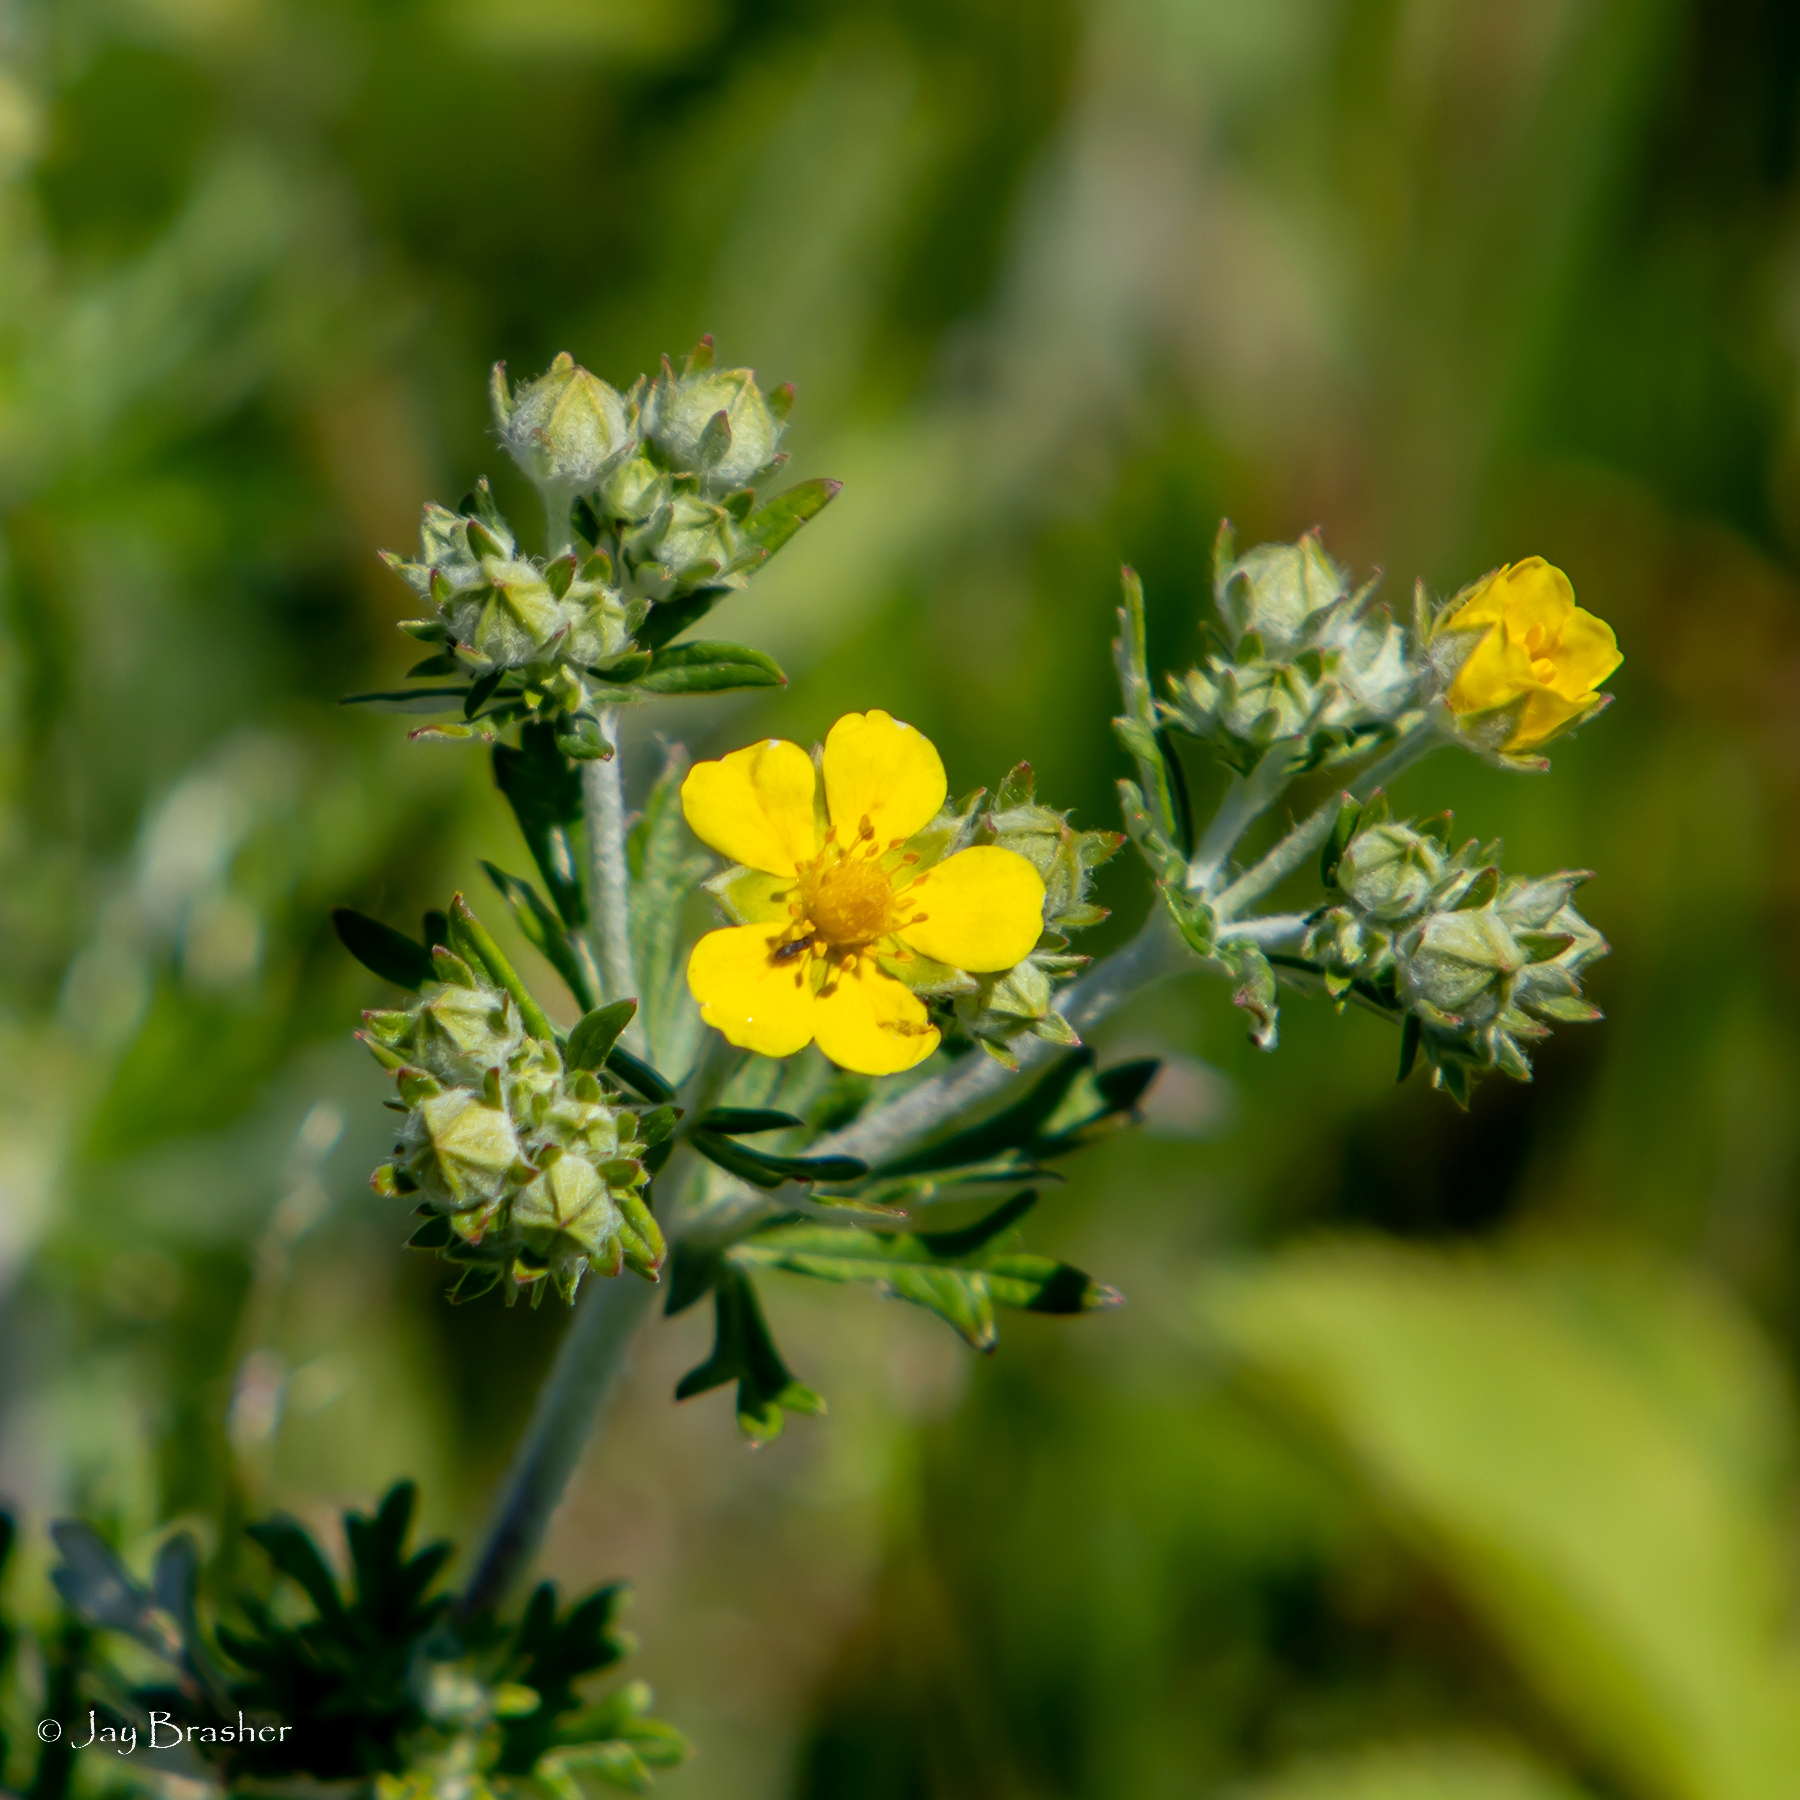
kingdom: Plantae
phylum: Tracheophyta
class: Magnoliopsida
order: Rosales
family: Rosaceae
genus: Potentilla
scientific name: Potentilla argentea
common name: Hoary cinquefoil
